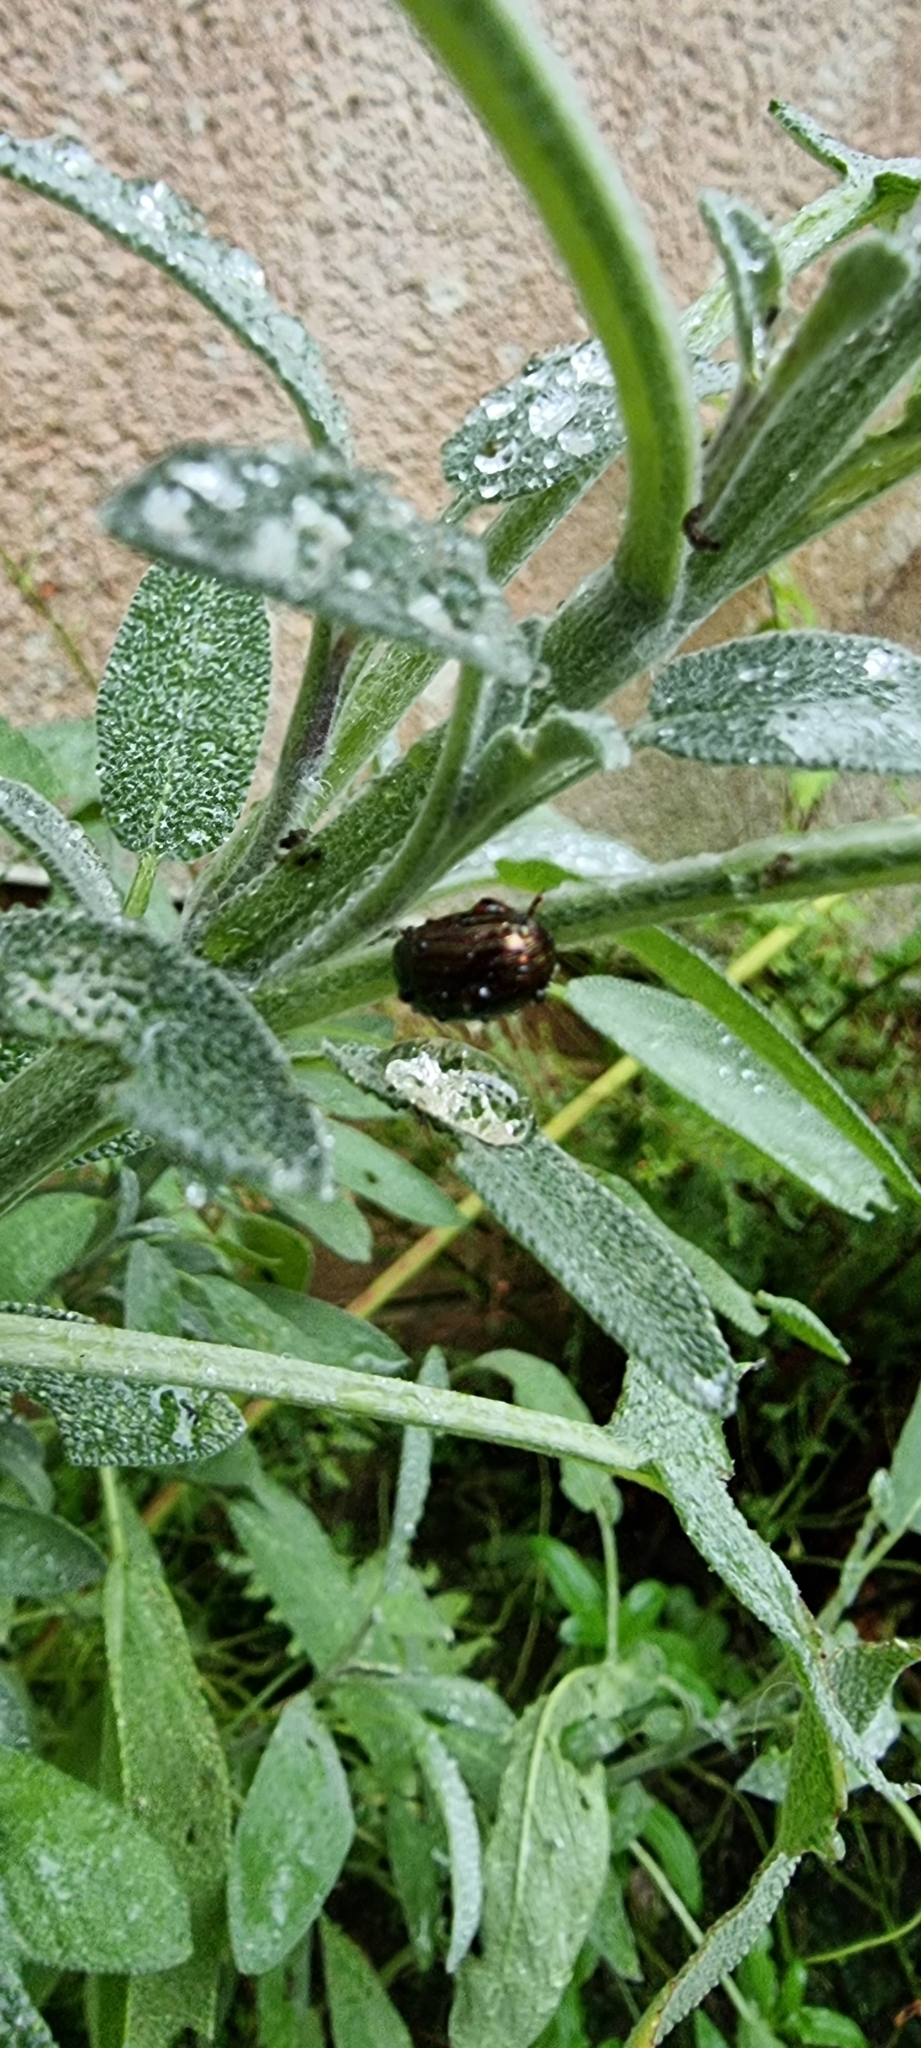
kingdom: Animalia
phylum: Arthropoda
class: Insecta
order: Coleoptera
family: Chrysomelidae
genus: Chrysolina
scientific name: Chrysolina americana
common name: Rosemary beetle
